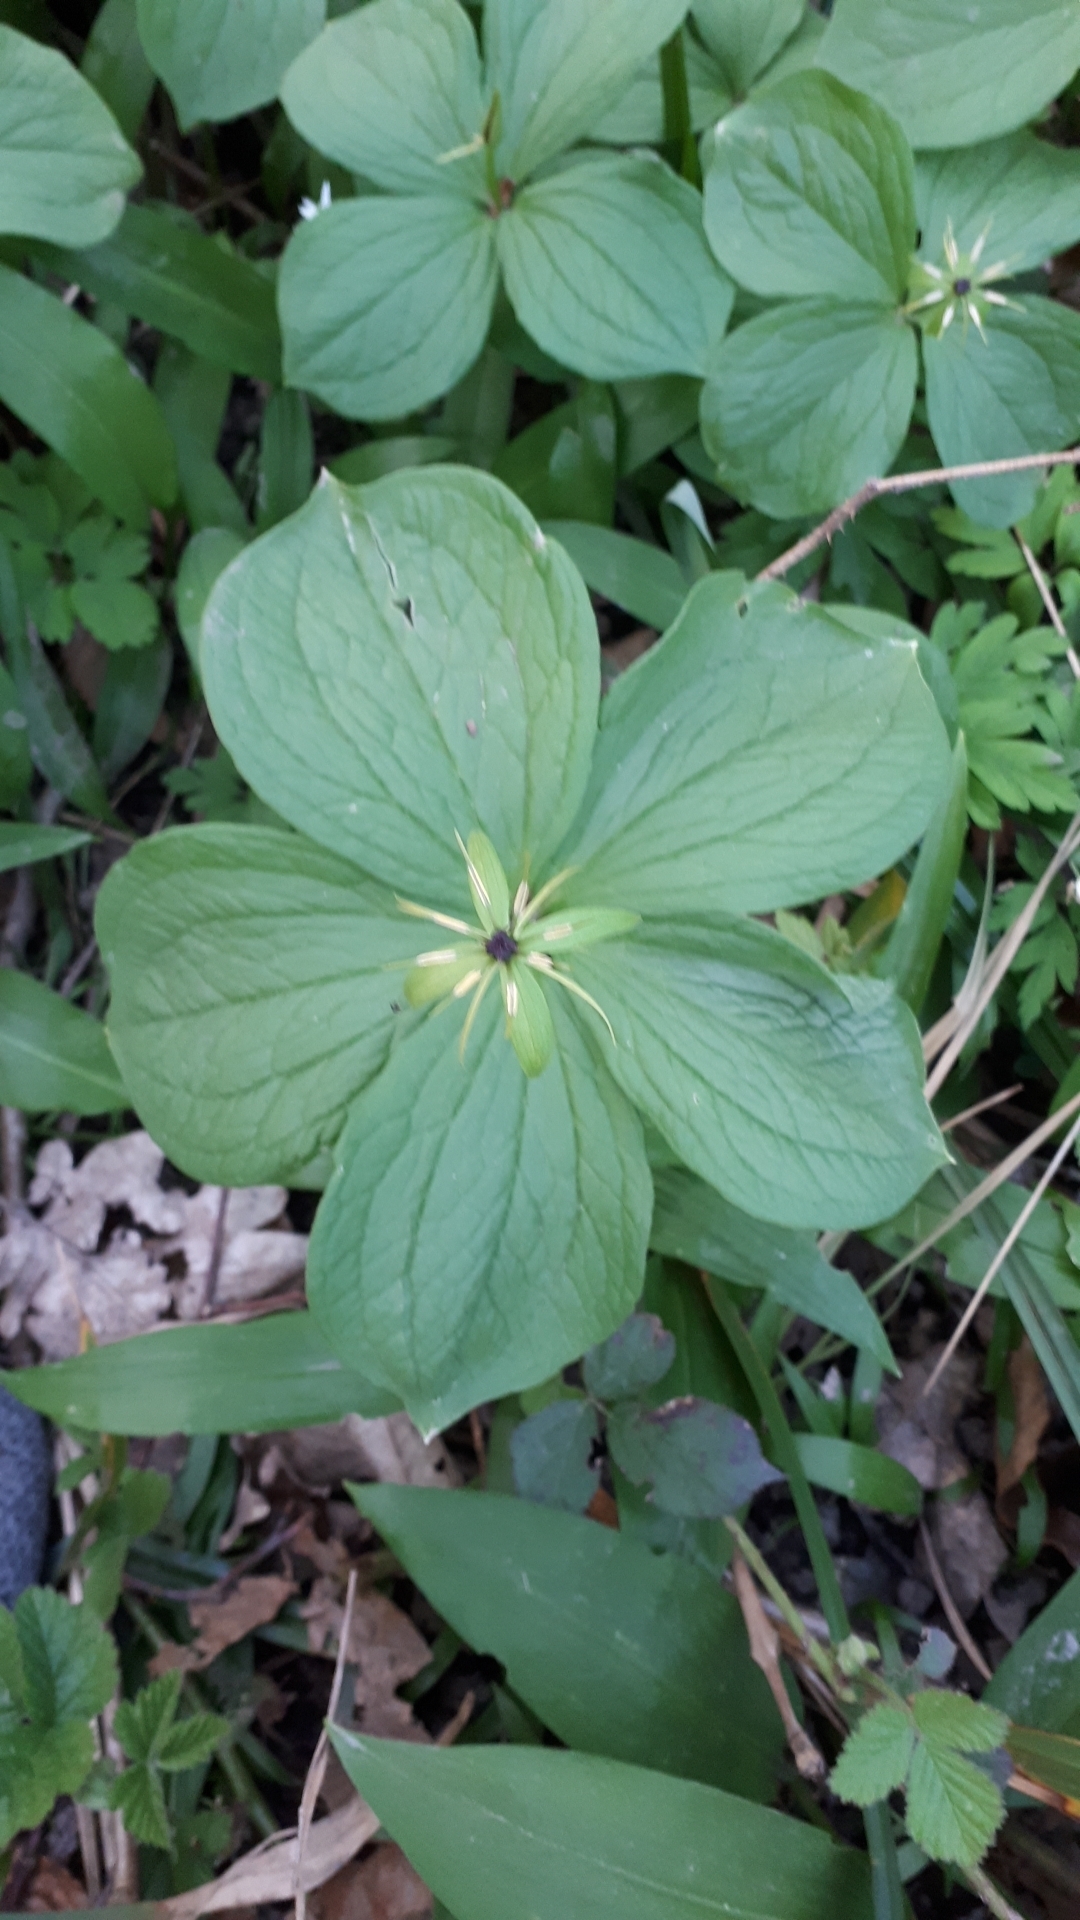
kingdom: Plantae
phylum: Tracheophyta
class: Liliopsida
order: Liliales
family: Melanthiaceae
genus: Paris
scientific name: Paris quadrifolia
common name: Herb-paris
